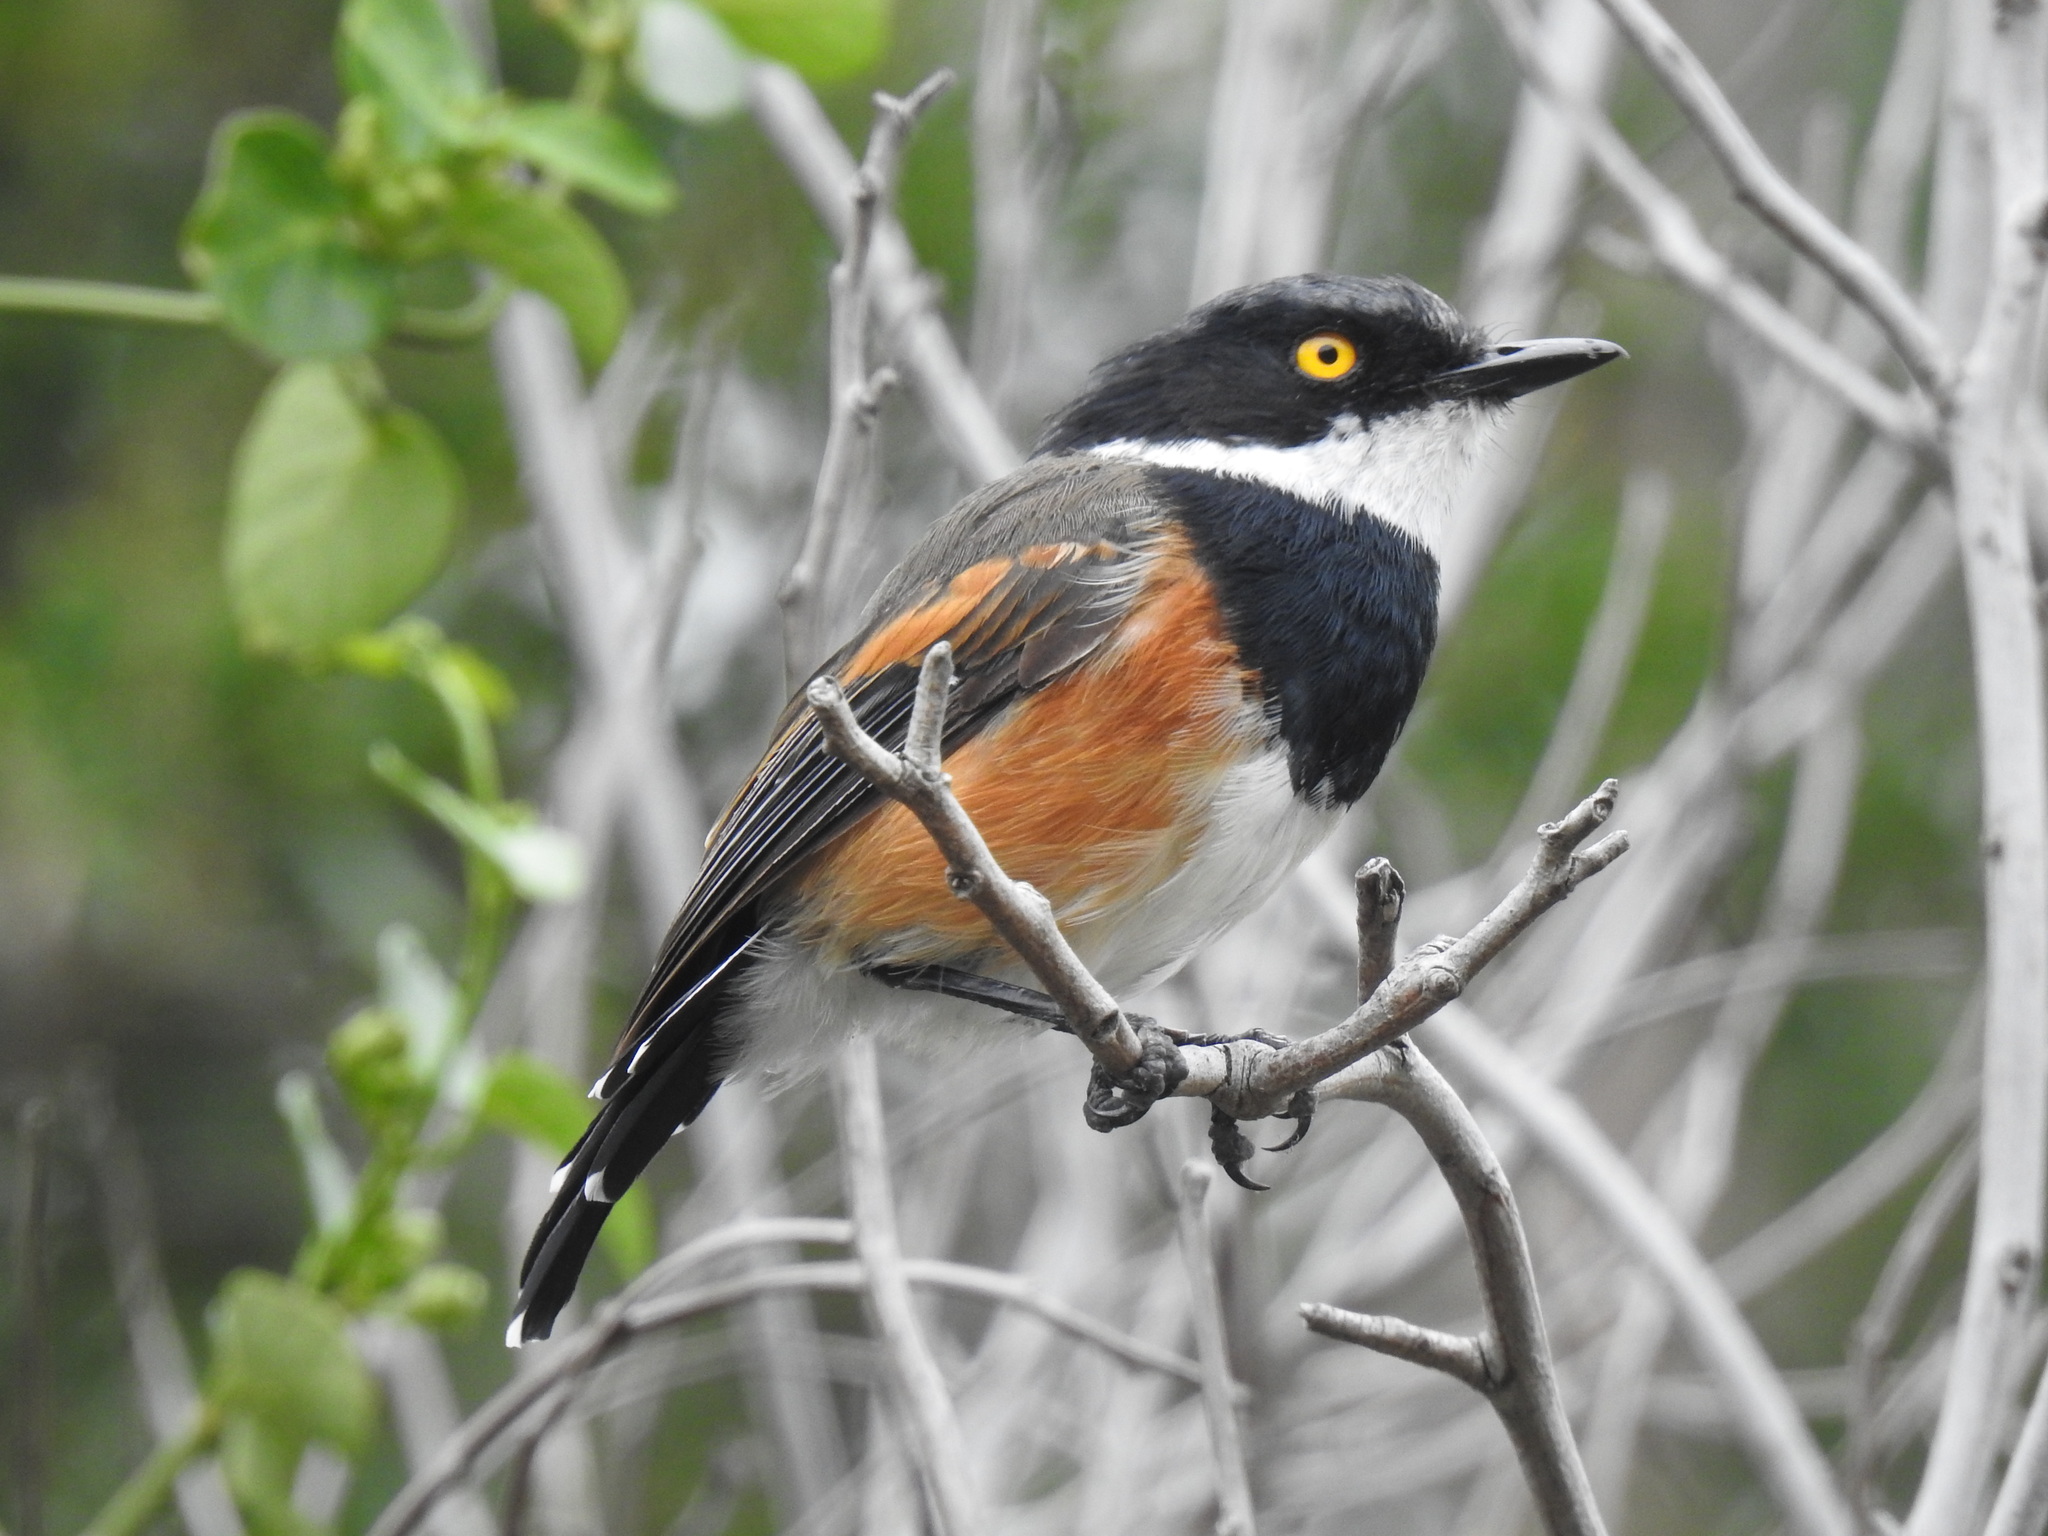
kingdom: Animalia
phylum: Chordata
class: Aves
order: Passeriformes
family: Platysteiridae
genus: Batis
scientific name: Batis capensis
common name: Cape batis
